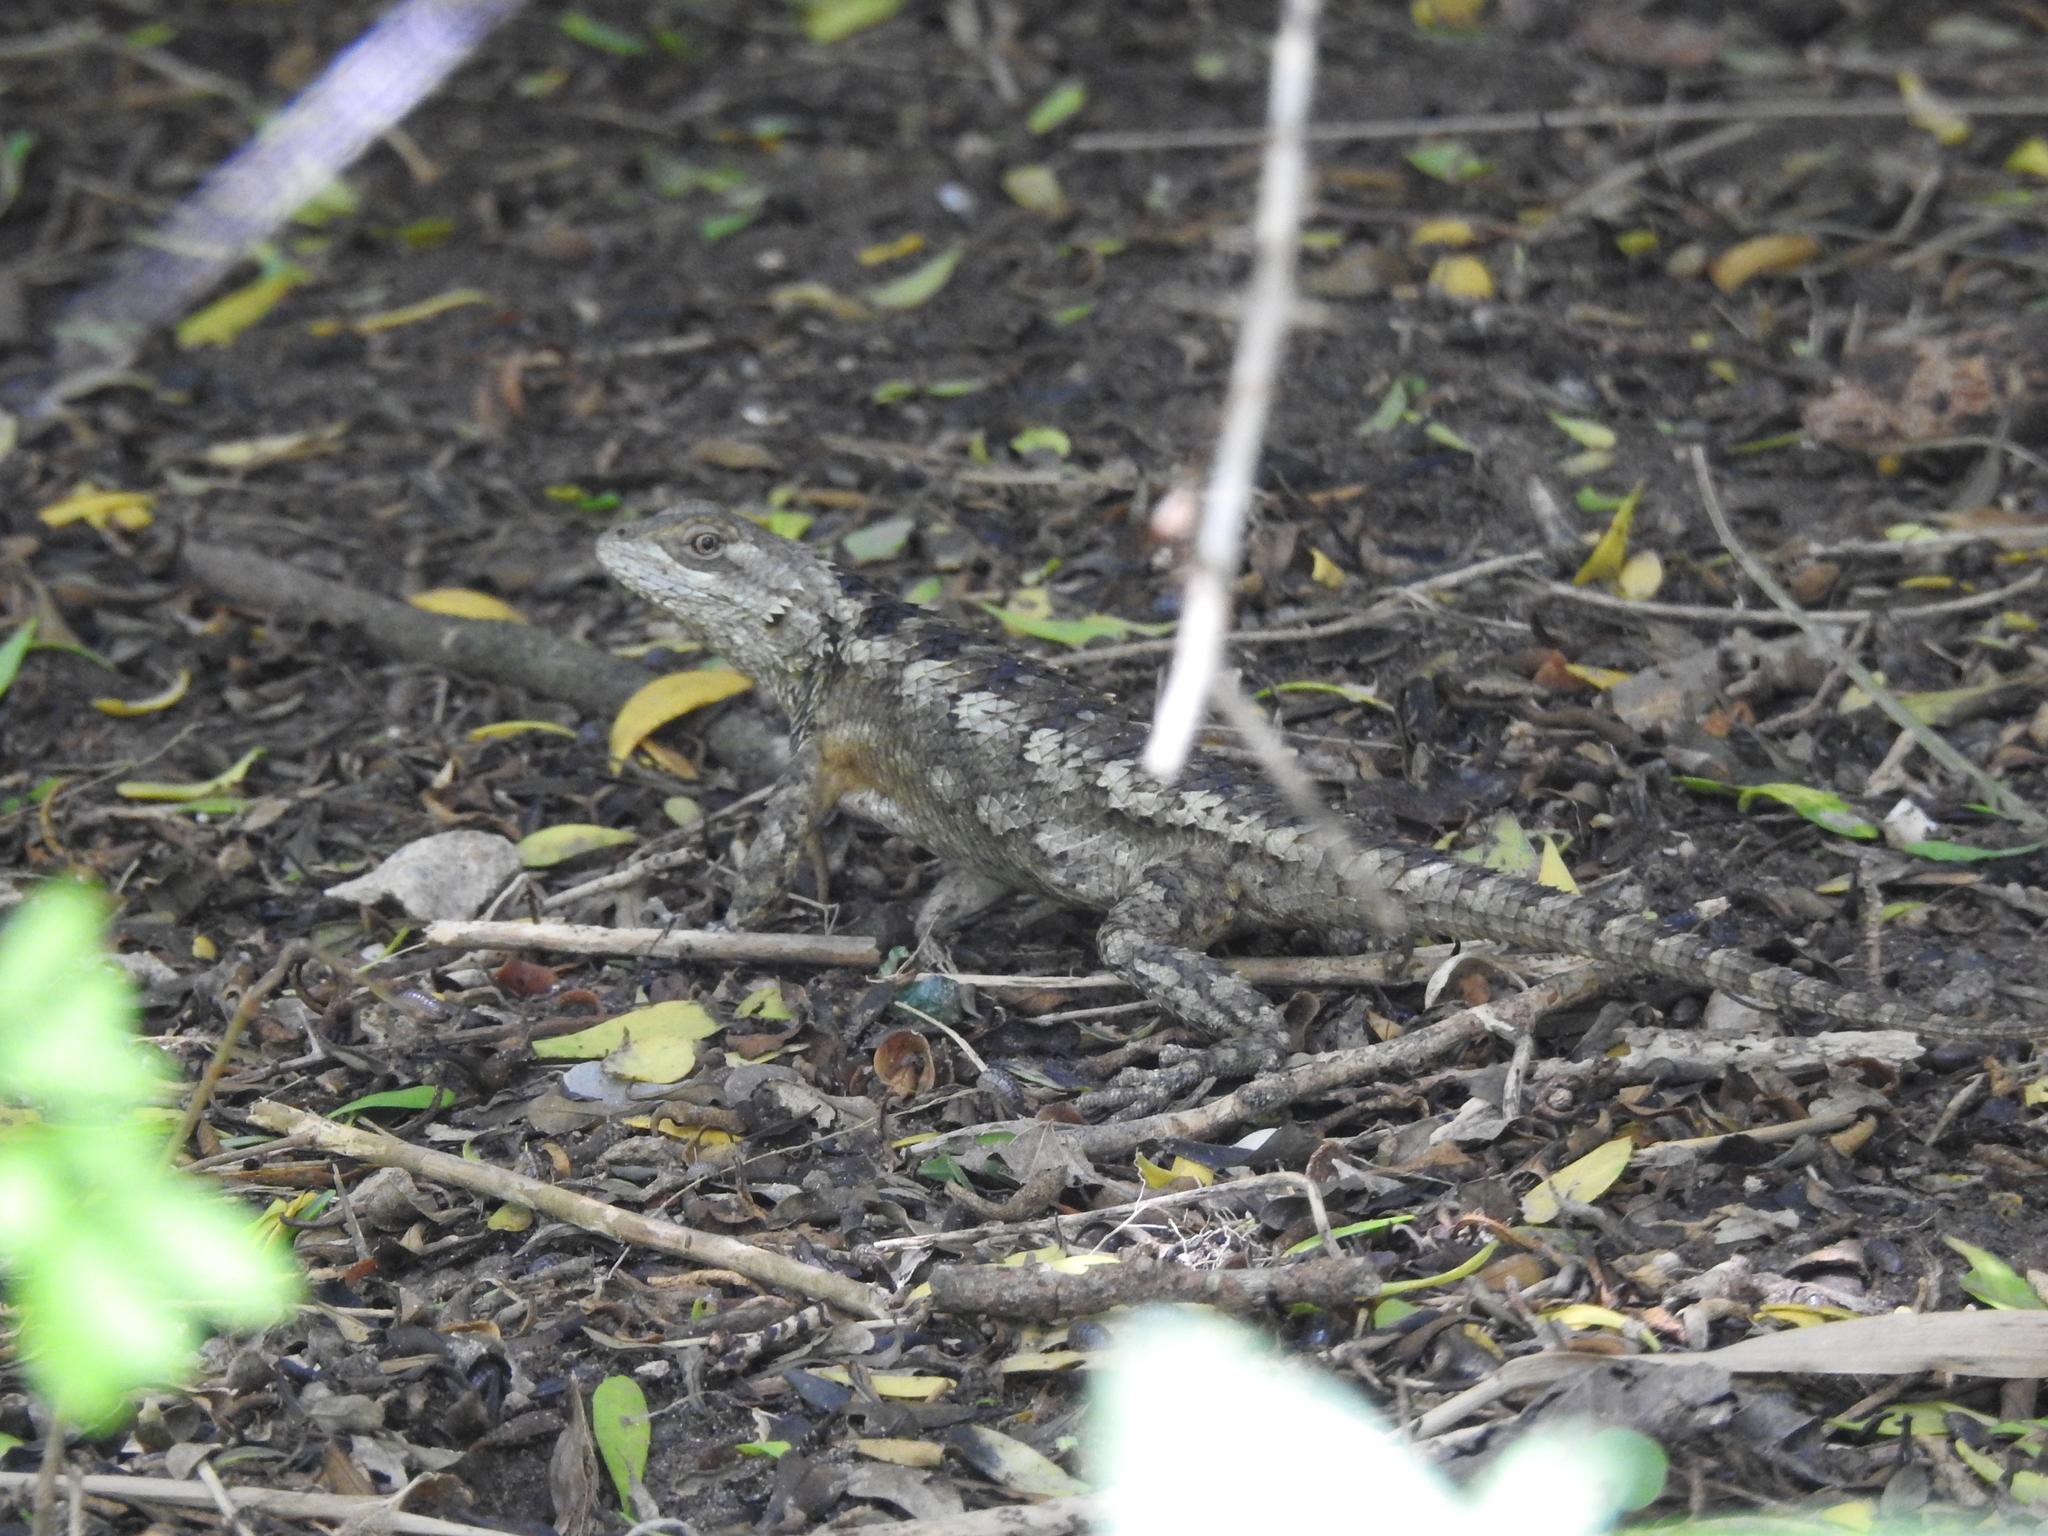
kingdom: Animalia
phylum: Chordata
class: Squamata
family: Phrynosomatidae
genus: Sceloporus
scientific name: Sceloporus olivaceus
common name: Texas spiny lizard
